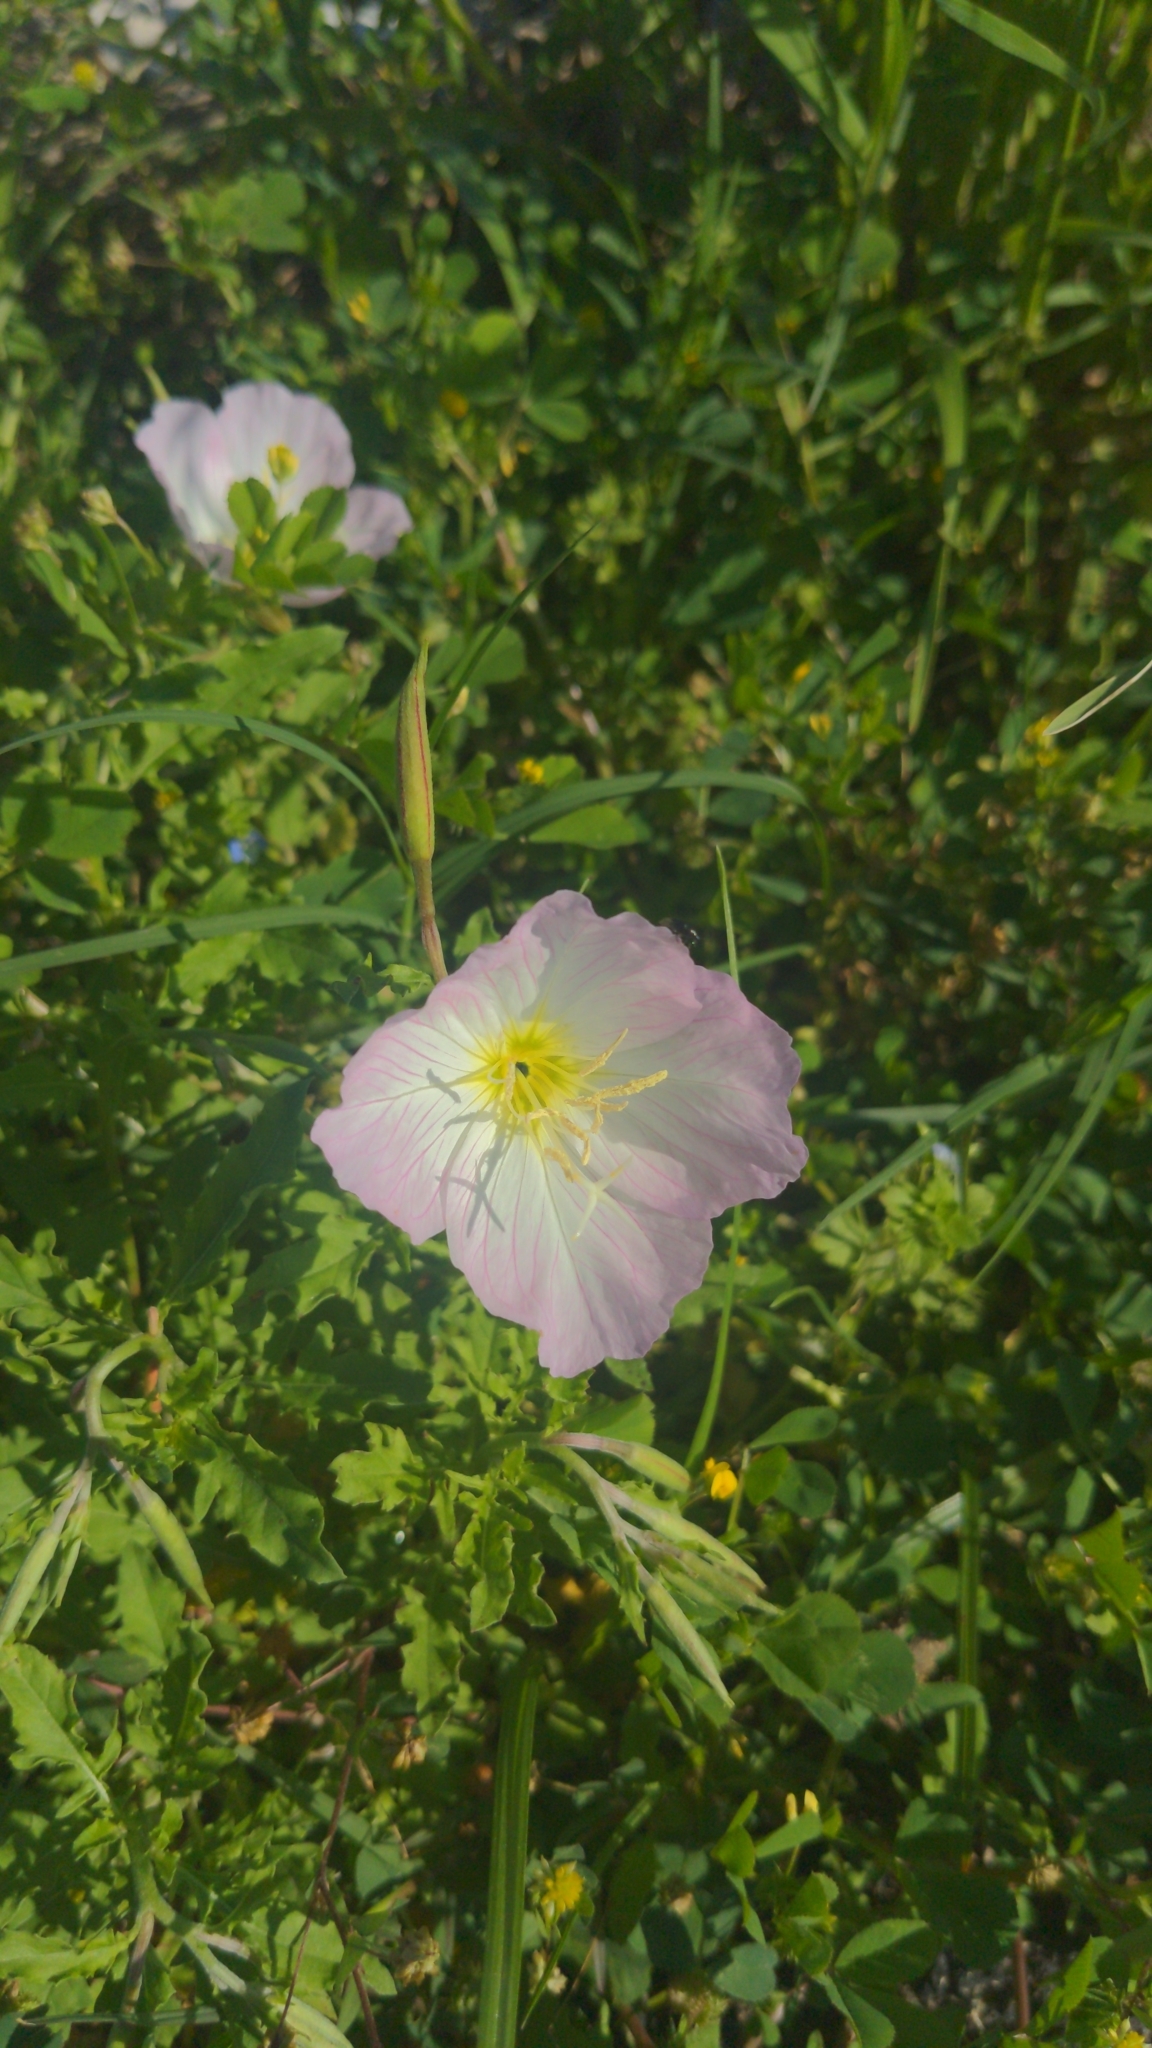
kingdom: Plantae
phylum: Tracheophyta
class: Magnoliopsida
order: Myrtales
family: Onagraceae
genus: Oenothera
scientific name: Oenothera speciosa
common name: White evening-primrose
